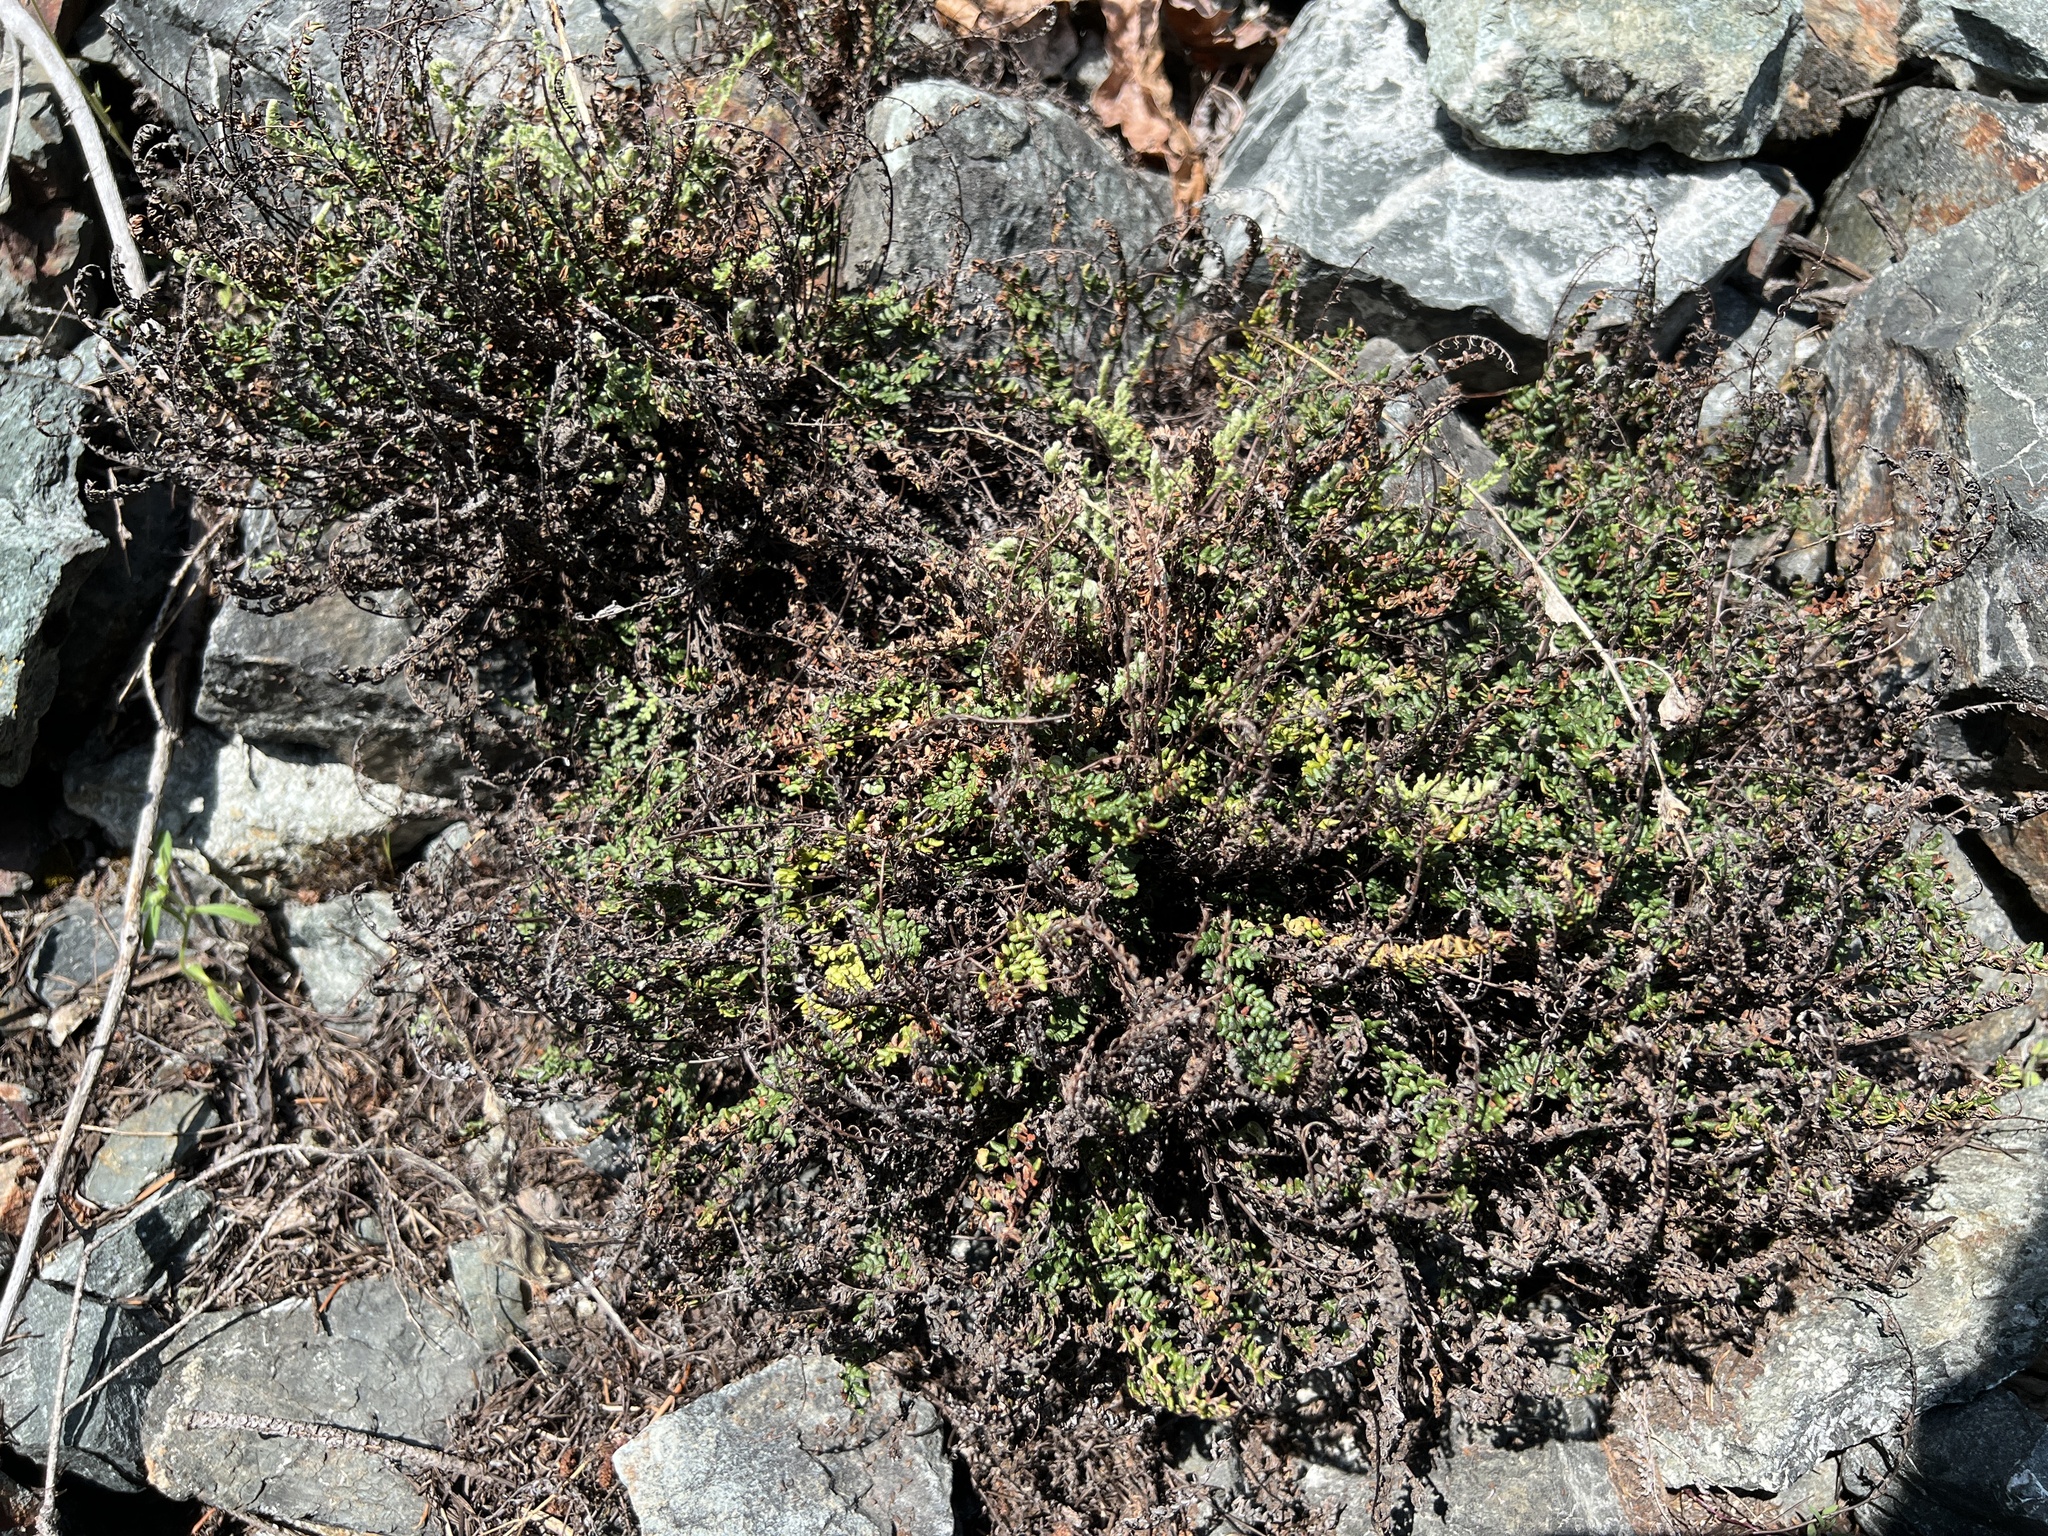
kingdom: Plantae
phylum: Tracheophyta
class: Polypodiopsida
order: Polypodiales
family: Pteridaceae
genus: Myriopteris
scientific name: Myriopteris gracillima
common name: Lace fern
